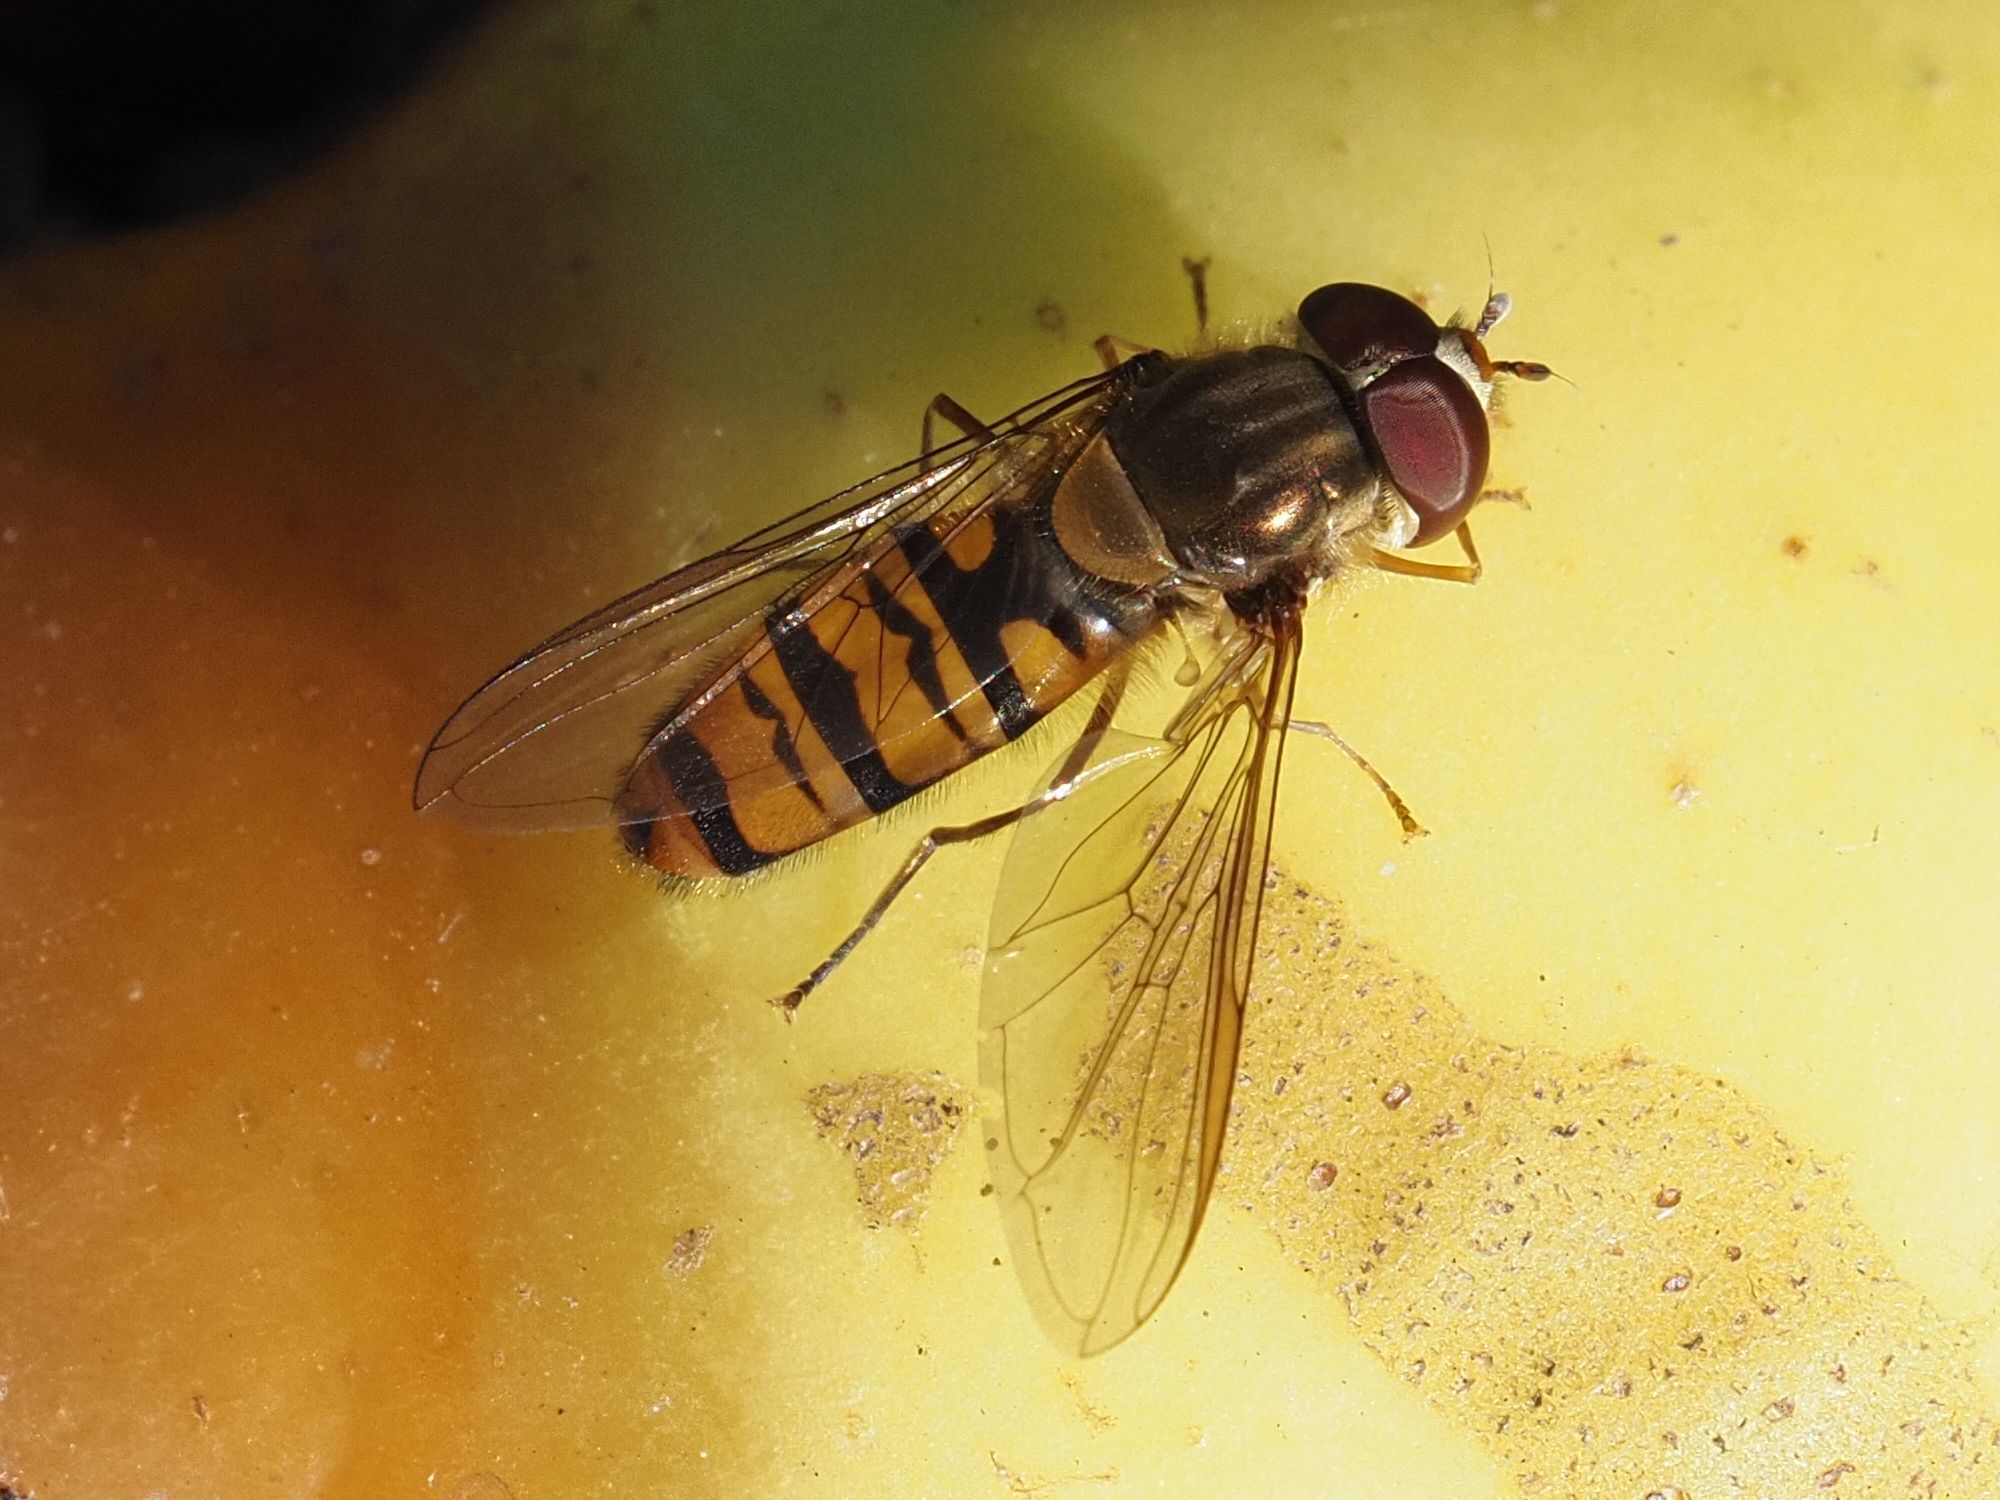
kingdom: Animalia
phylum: Arthropoda
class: Insecta
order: Diptera
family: Syrphidae
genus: Episyrphus
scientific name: Episyrphus balteatus
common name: Marmalade hoverfly
